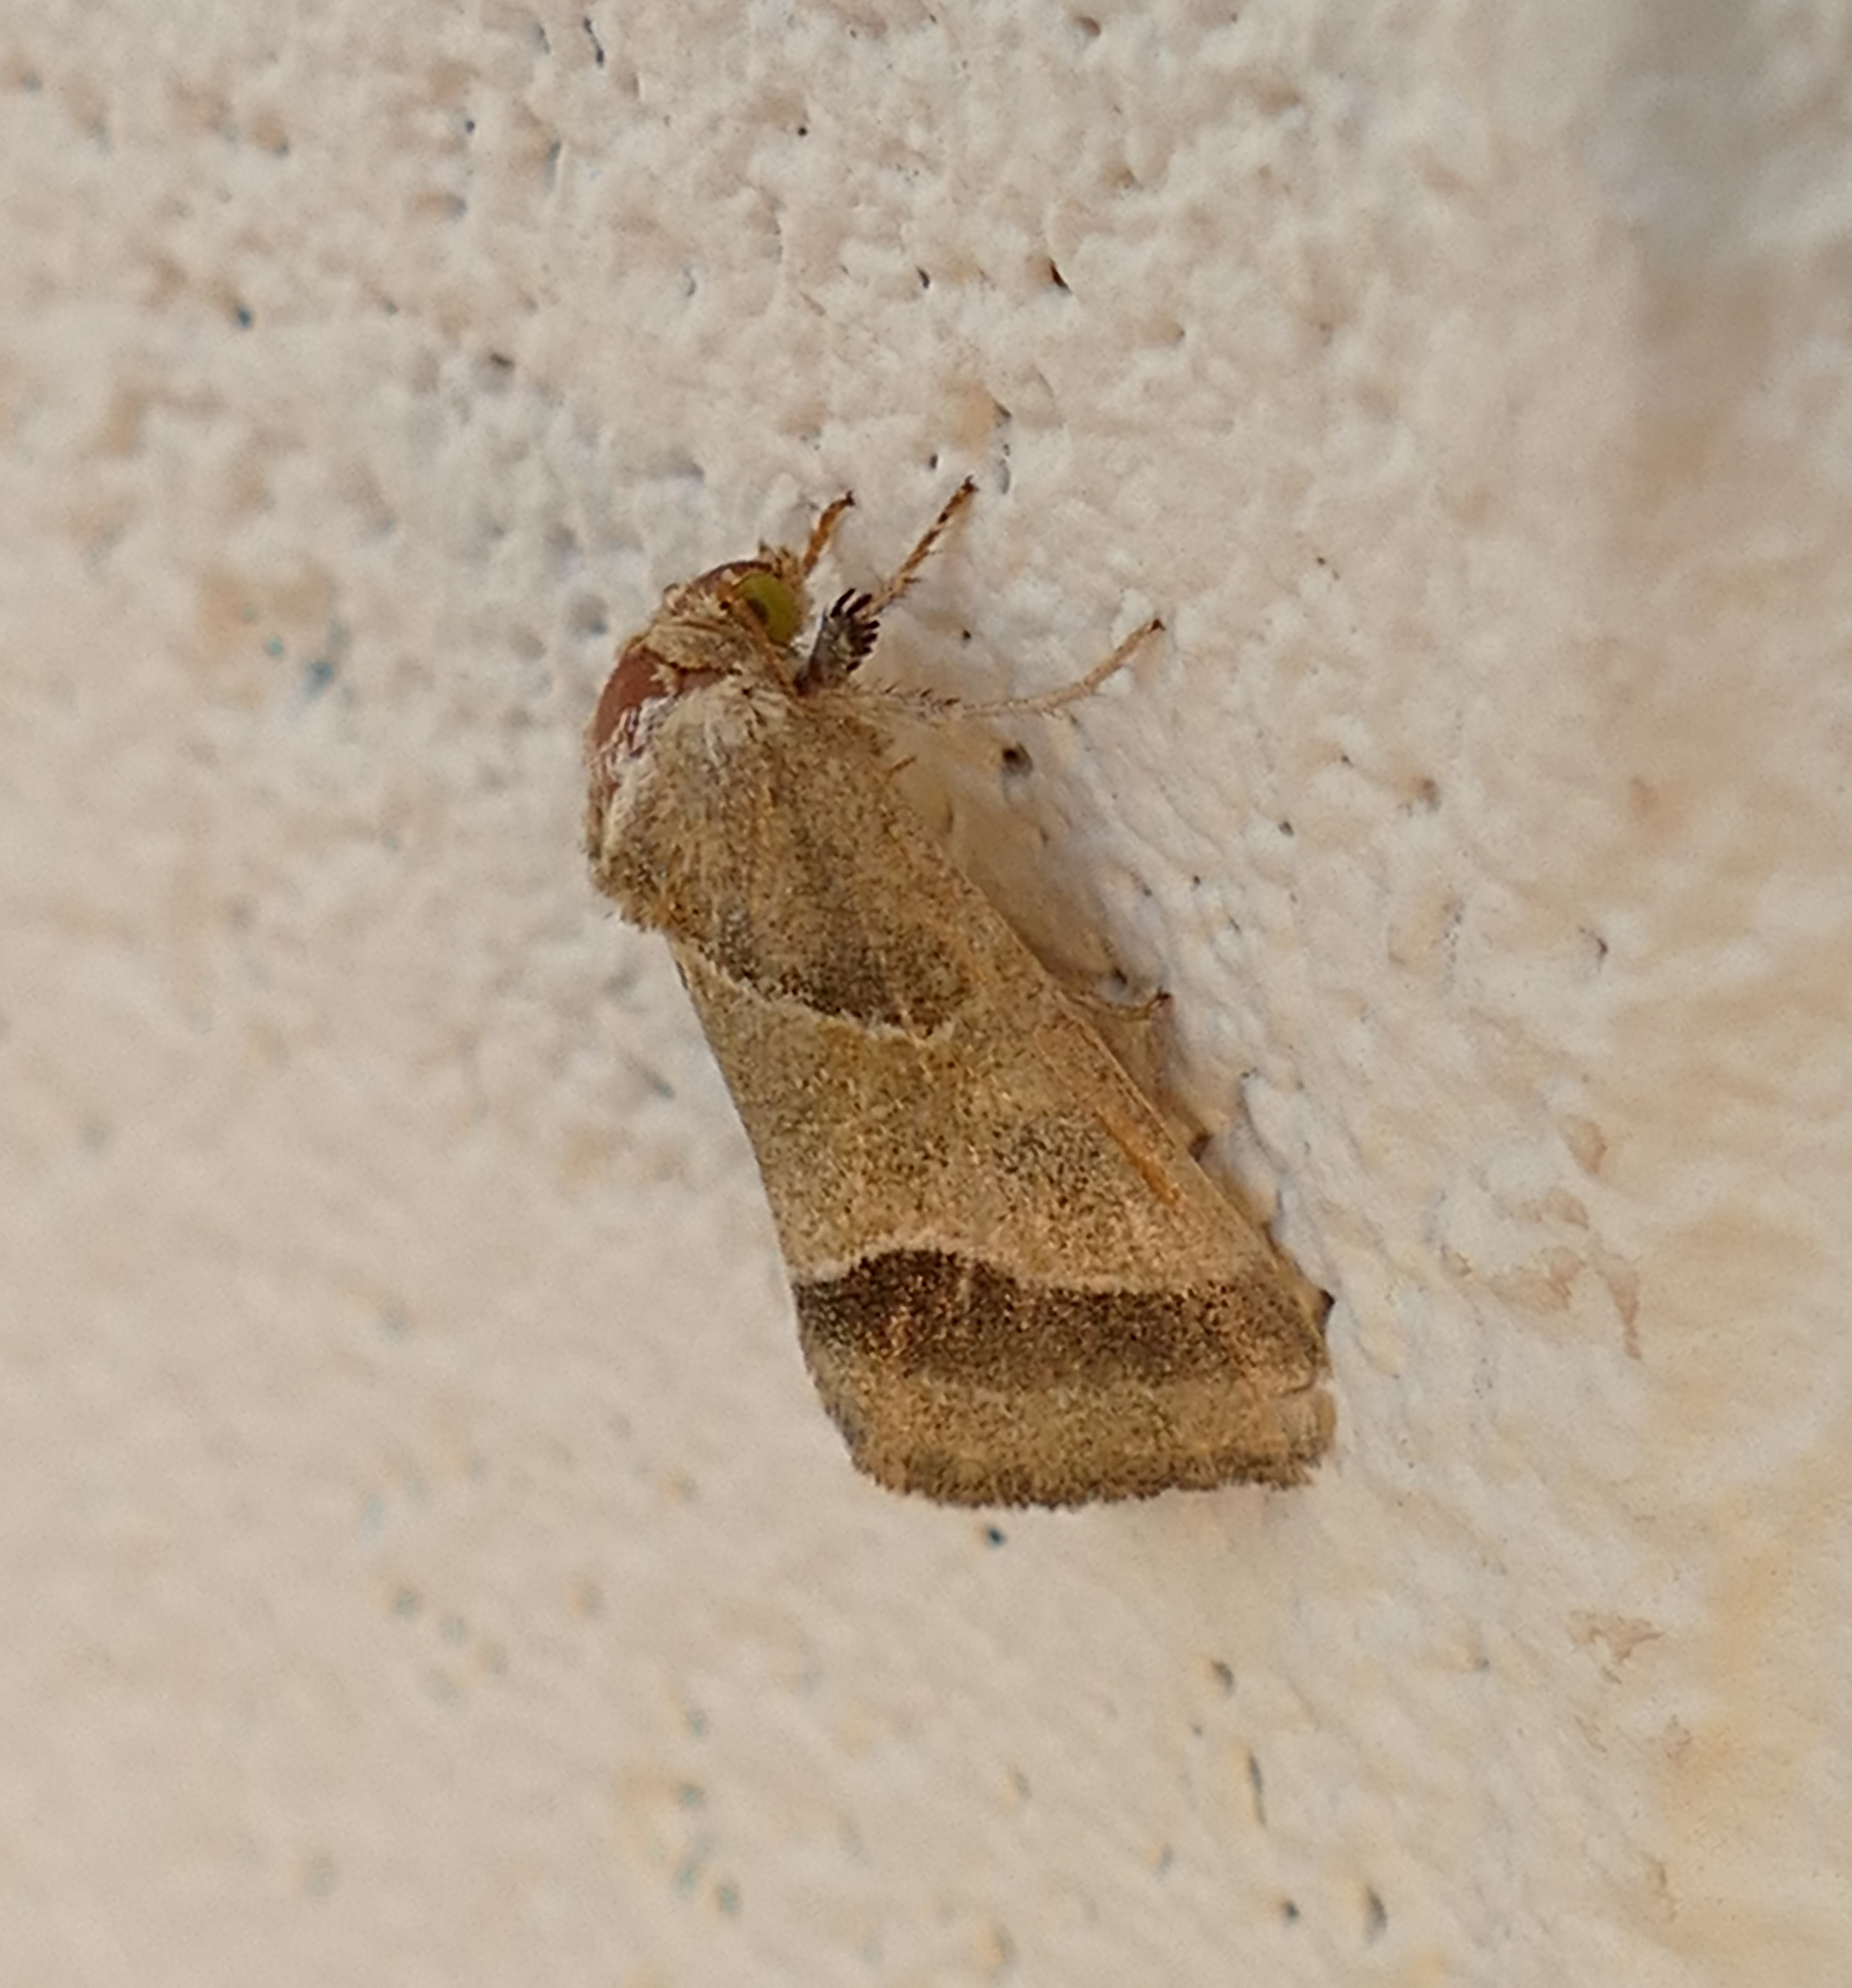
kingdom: Animalia
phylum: Arthropoda
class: Insecta
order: Lepidoptera
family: Noctuidae
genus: Schinia
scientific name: Schinia gracilenta
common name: Slender flower moth
